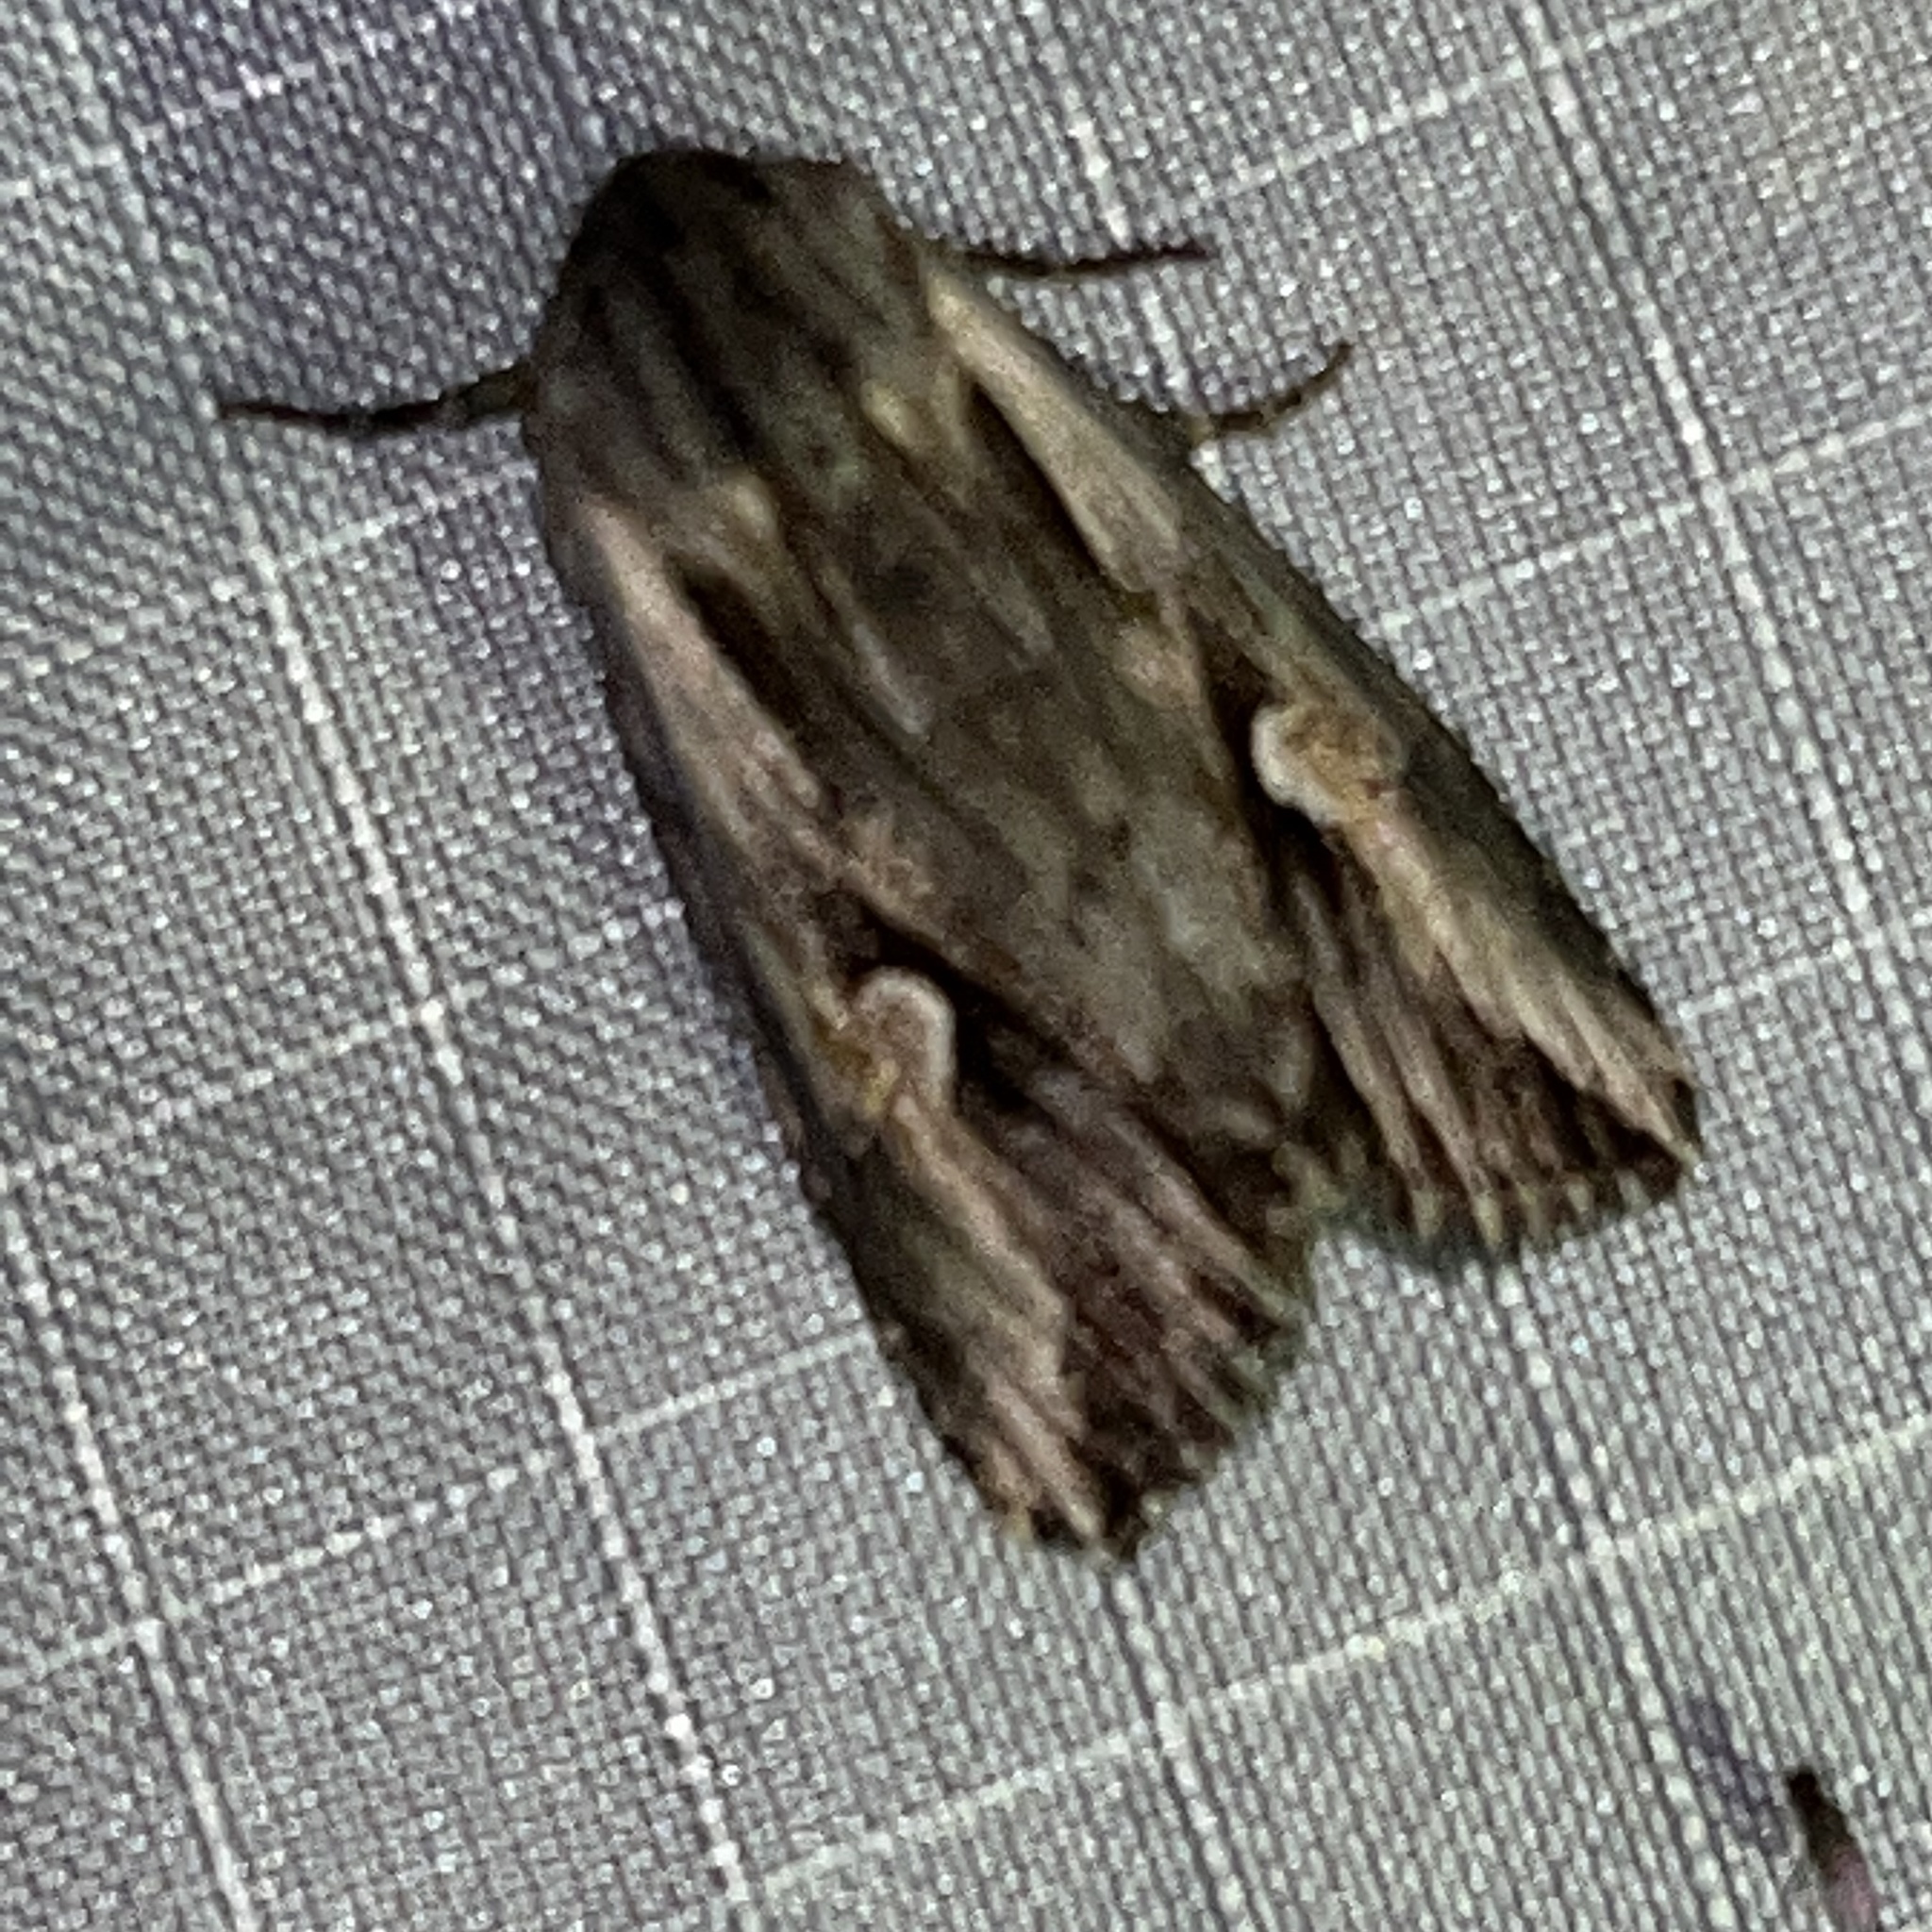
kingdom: Animalia
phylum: Arthropoda
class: Insecta
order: Lepidoptera
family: Noctuidae
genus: Nedra
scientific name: Nedra ramosula
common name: Gray half-spot
